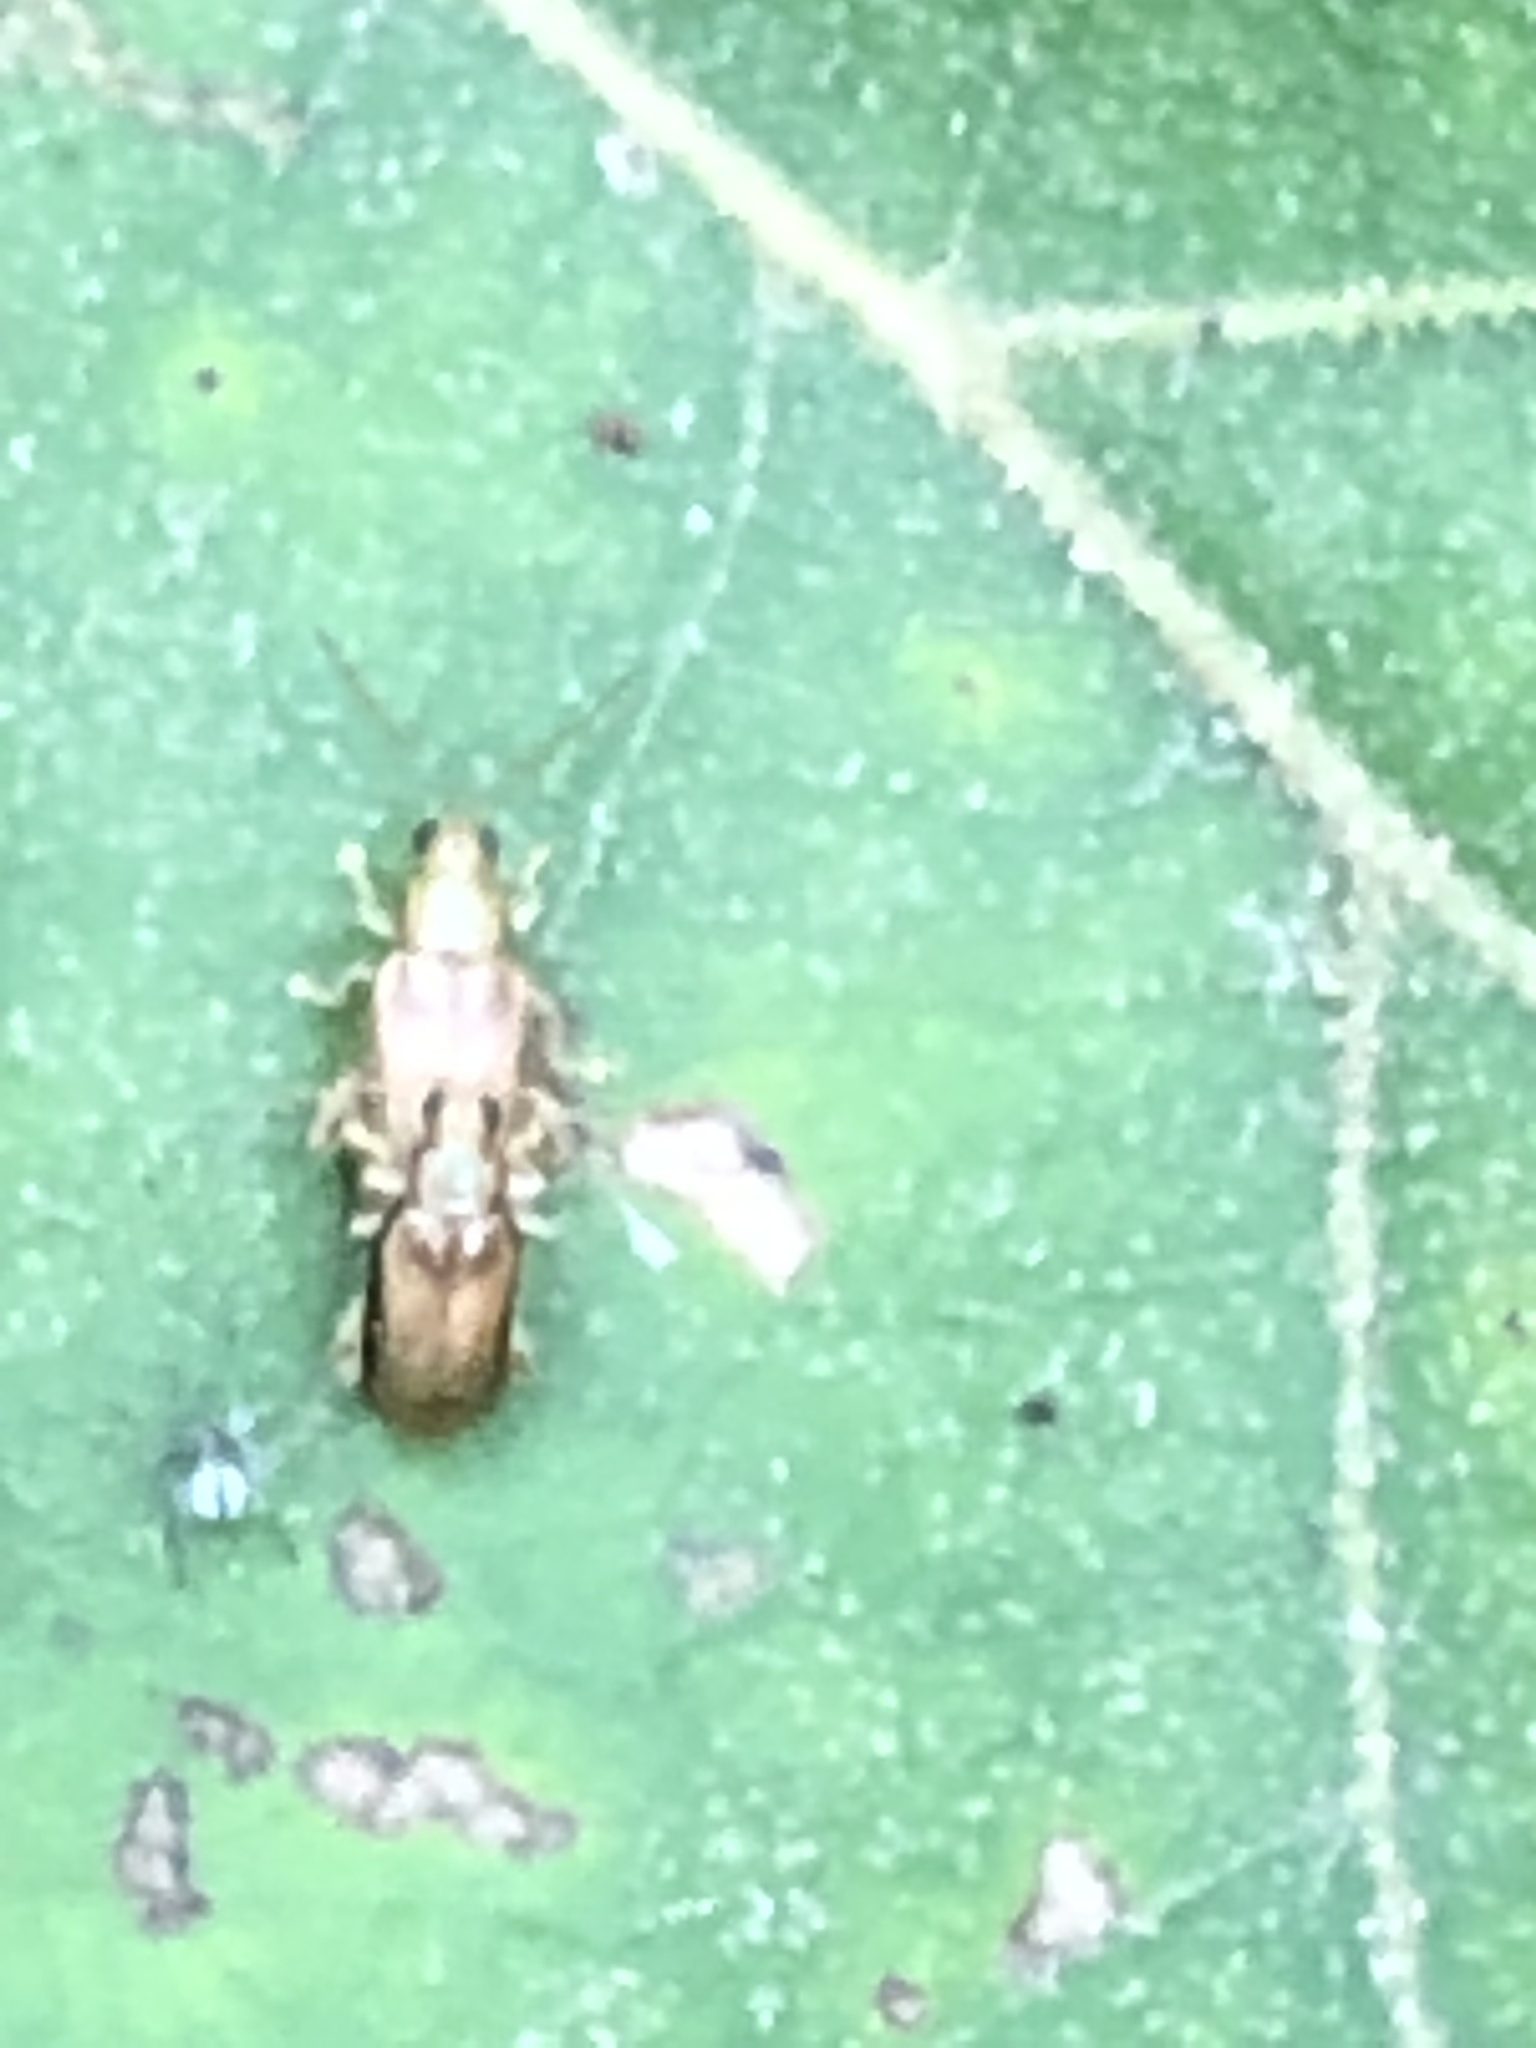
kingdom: Animalia
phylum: Arthropoda
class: Insecta
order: Coleoptera
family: Chrysomelidae
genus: Systena
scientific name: Systena marginalis
